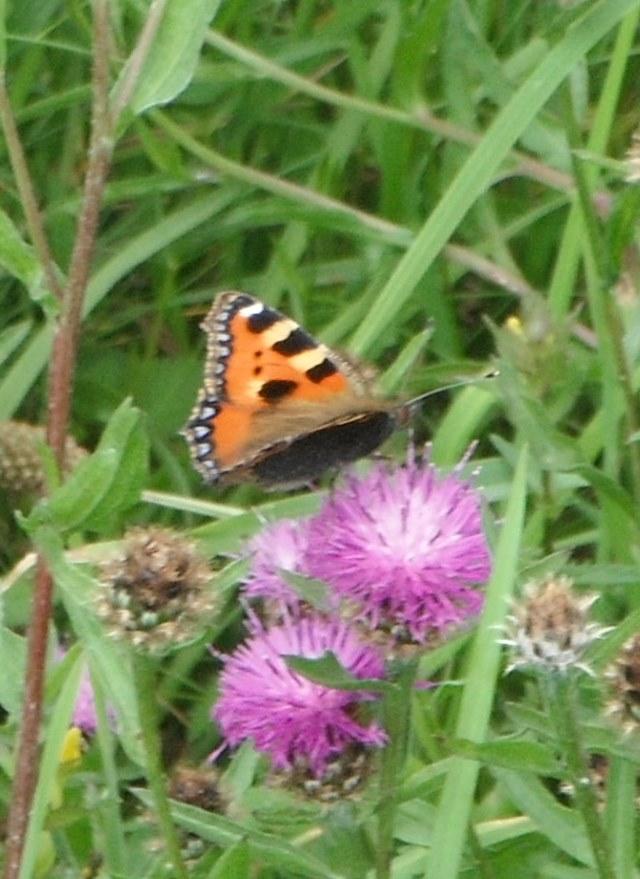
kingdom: Animalia
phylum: Arthropoda
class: Insecta
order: Lepidoptera
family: Nymphalidae
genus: Aglais
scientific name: Aglais urticae
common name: Small tortoiseshell
